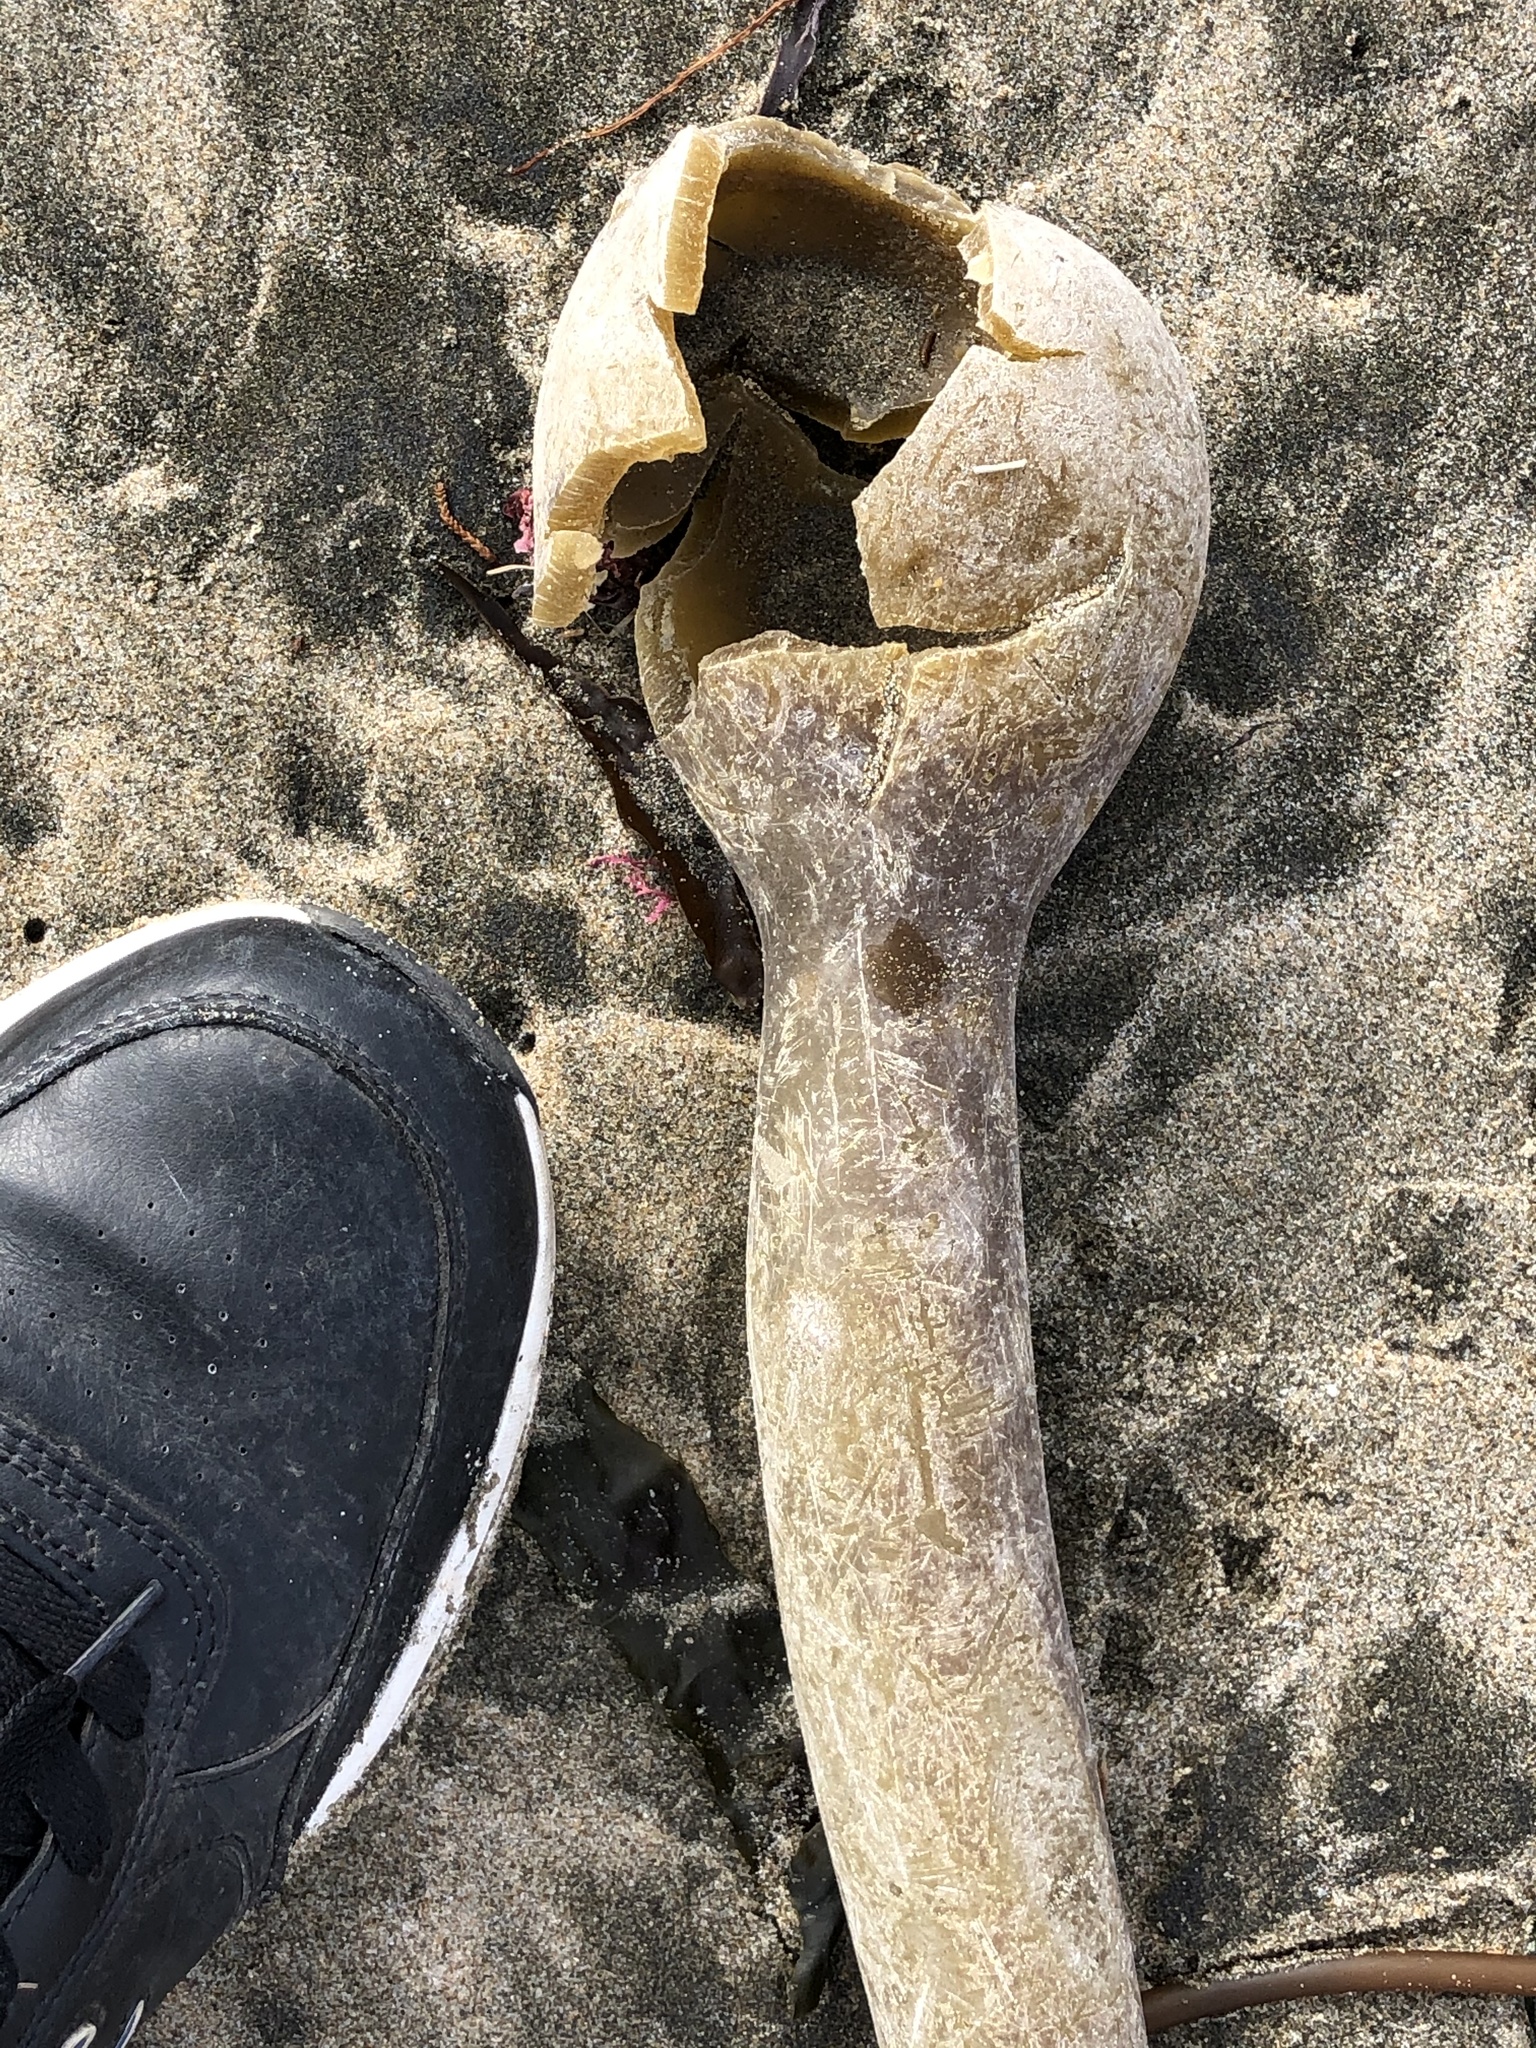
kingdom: Chromista
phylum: Ochrophyta
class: Phaeophyceae
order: Laminariales
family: Laminariaceae
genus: Nereocystis
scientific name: Nereocystis luetkeana
